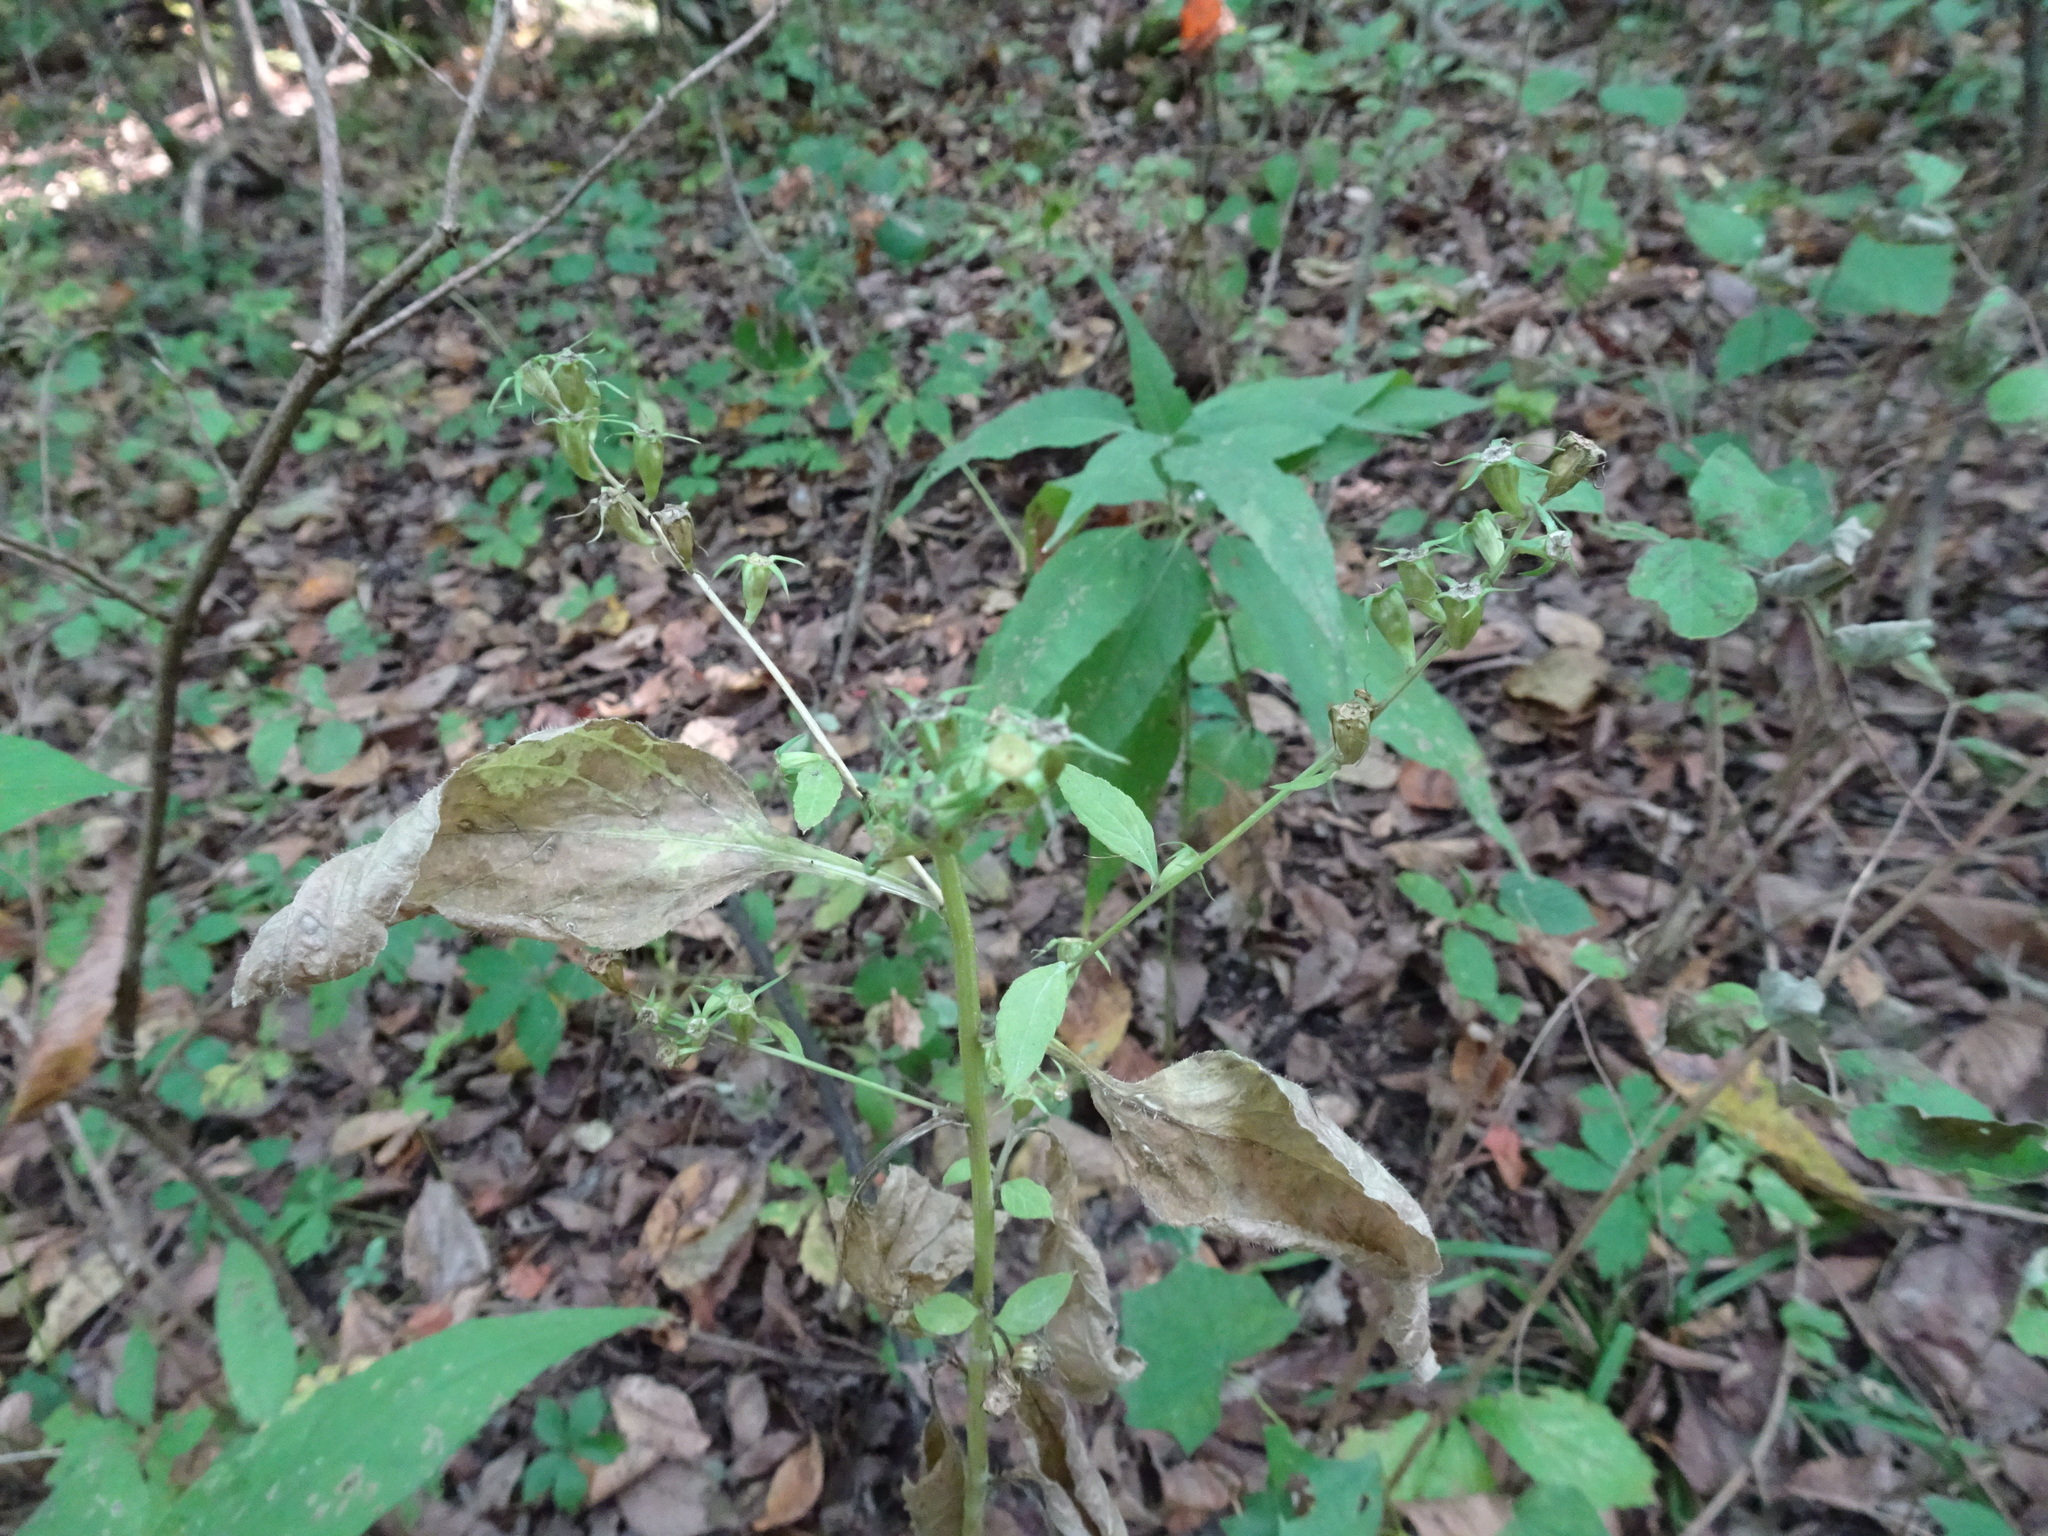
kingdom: Plantae
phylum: Tracheophyta
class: Magnoliopsida
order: Asterales
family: Campanulaceae
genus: Campanulastrum
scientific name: Campanulastrum americanum
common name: American bellflower
